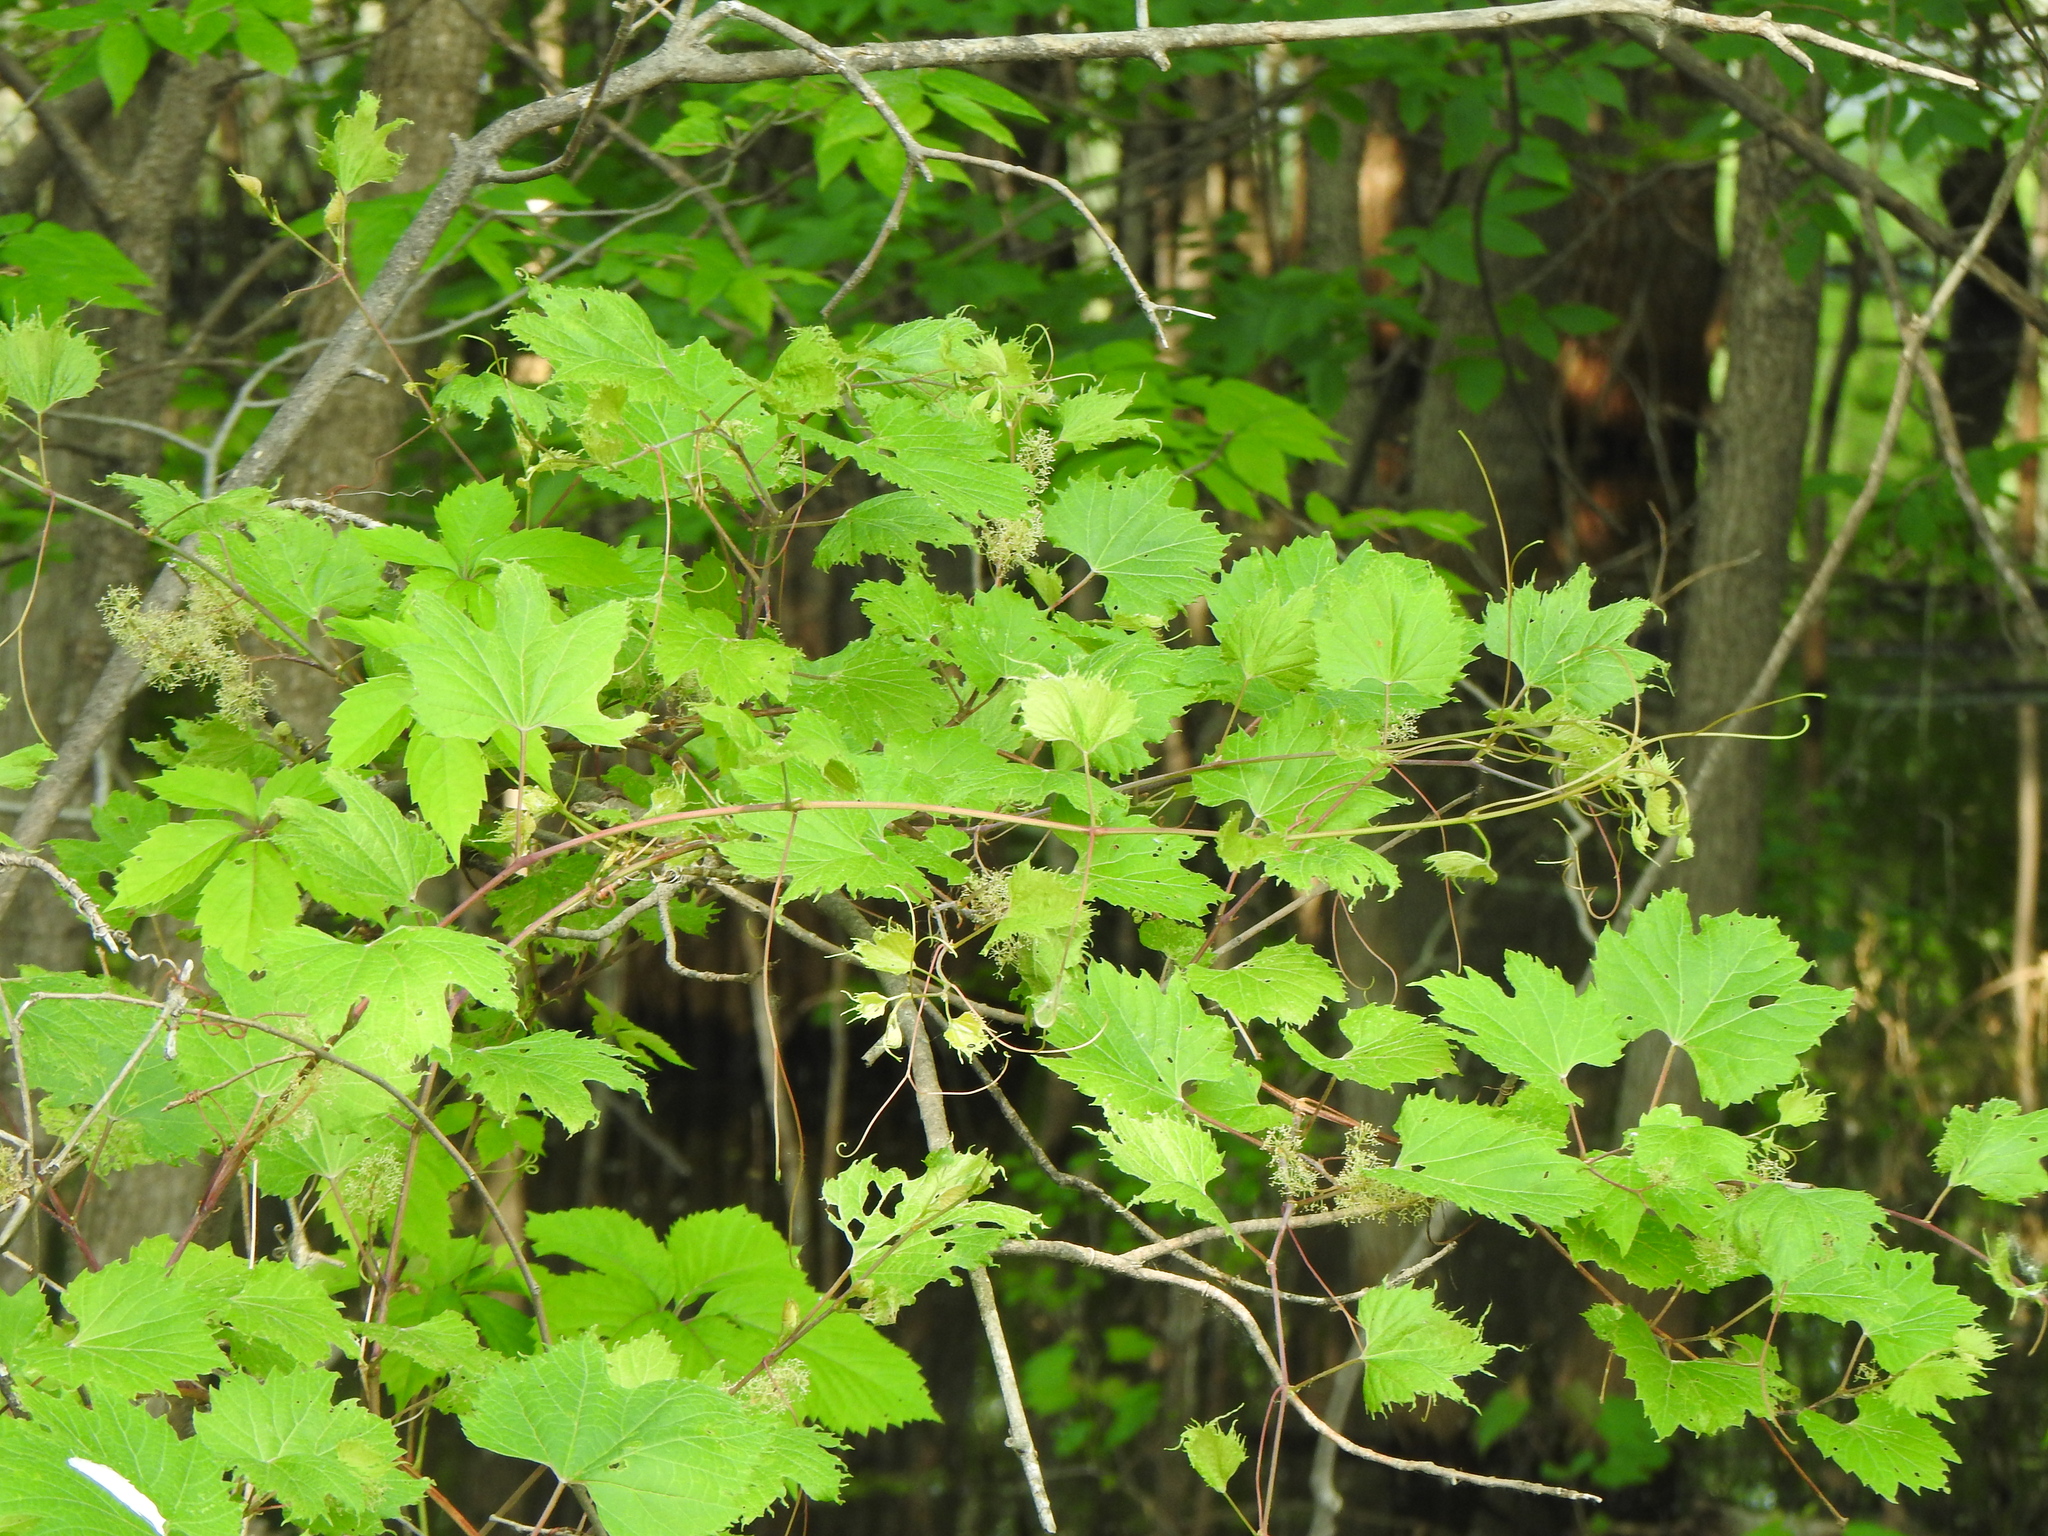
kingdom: Plantae
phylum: Tracheophyta
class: Magnoliopsida
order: Vitales
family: Vitaceae
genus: Vitis
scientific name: Vitis riparia
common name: Frost grape
